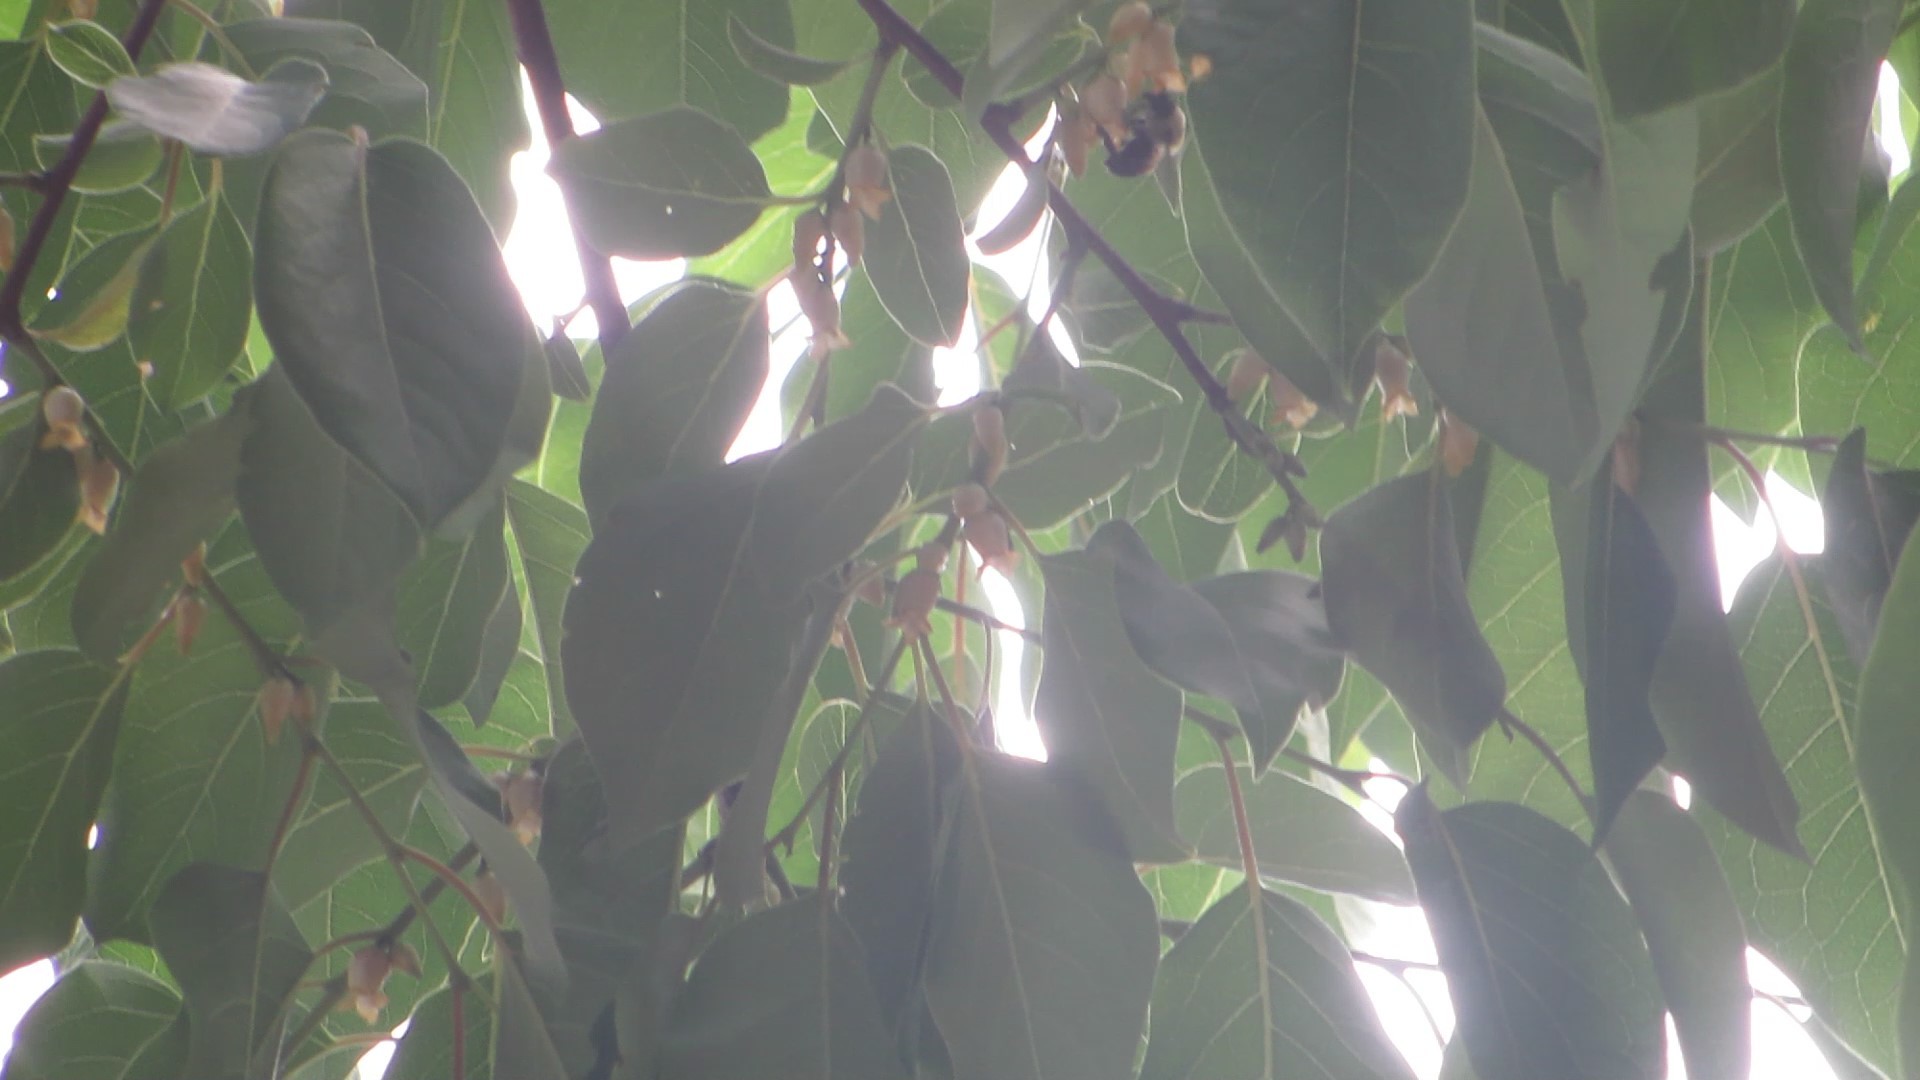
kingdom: Animalia
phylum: Arthropoda
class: Insecta
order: Hymenoptera
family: Apidae
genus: Bombus
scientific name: Bombus impatiens
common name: Common eastern bumble bee
